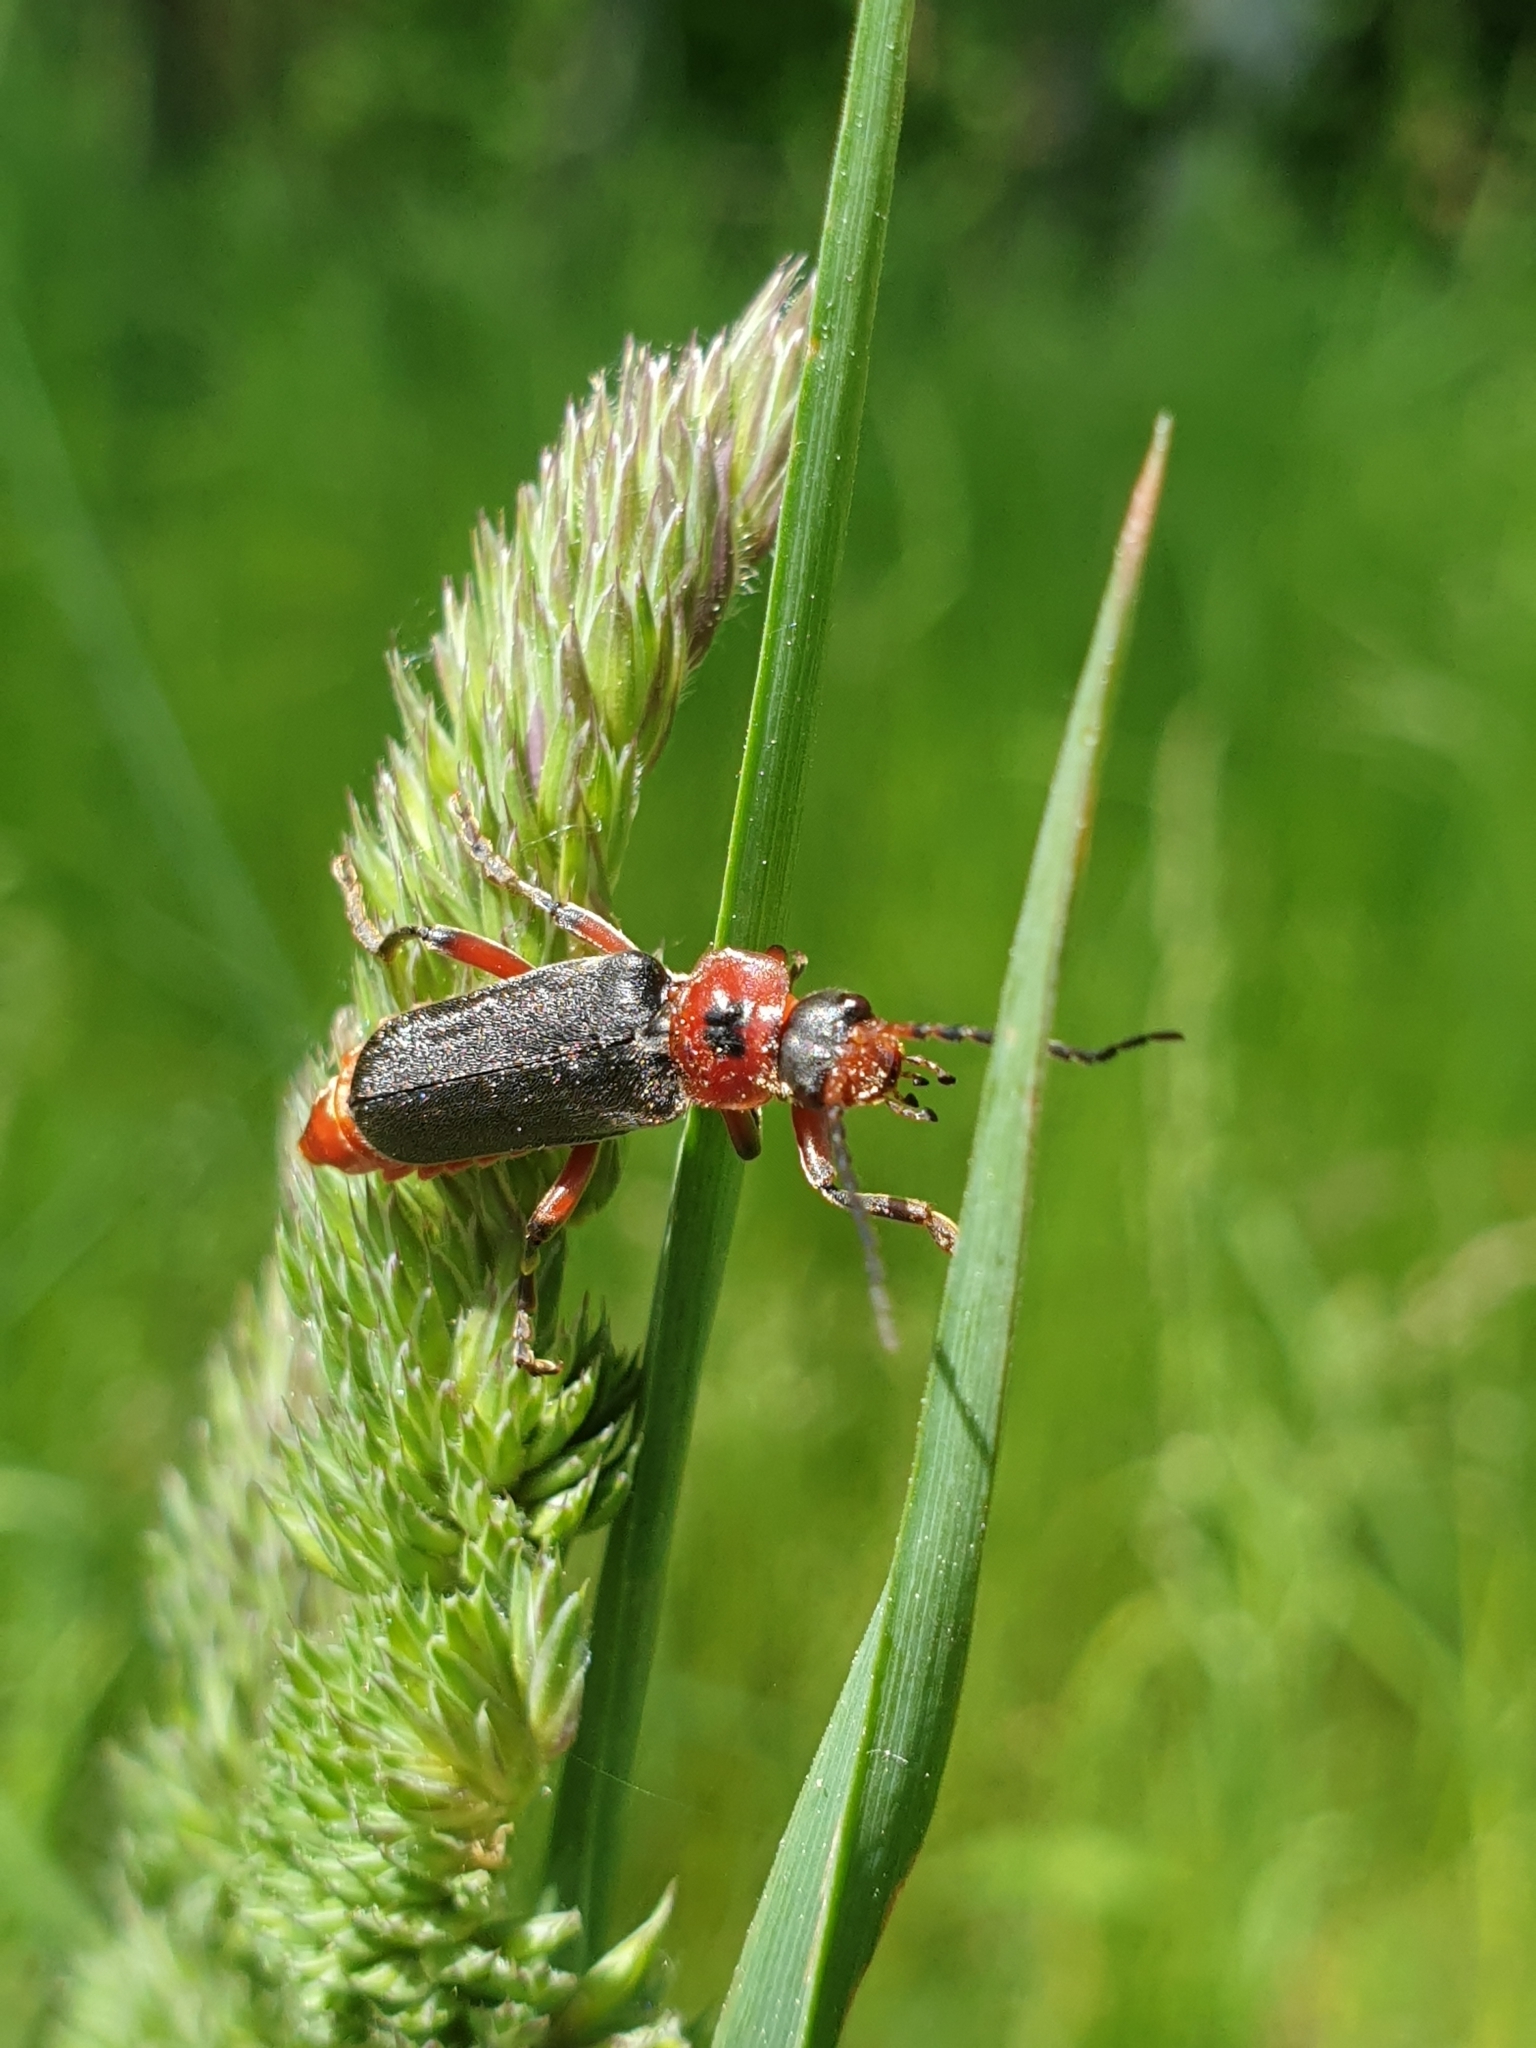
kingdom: Animalia
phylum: Arthropoda
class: Insecta
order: Coleoptera
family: Cantharidae
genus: Cantharis
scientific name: Cantharis rustica
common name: Soldier beetle
